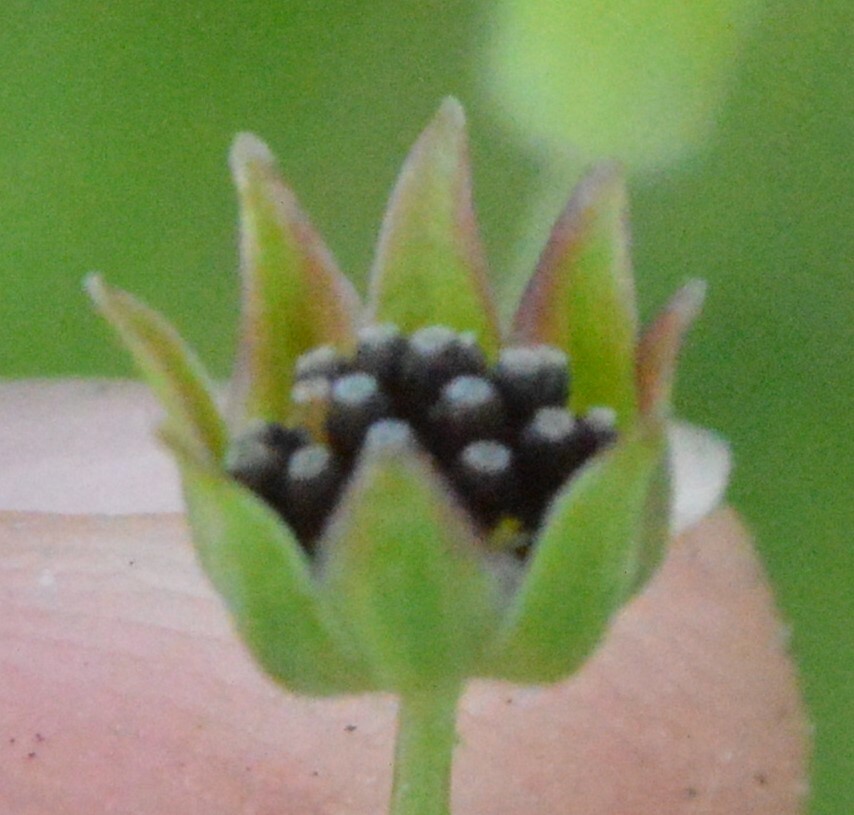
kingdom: Plantae
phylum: Tracheophyta
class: Magnoliopsida
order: Asterales
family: Asteraceae
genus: Krigia
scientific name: Krigia wrightii
